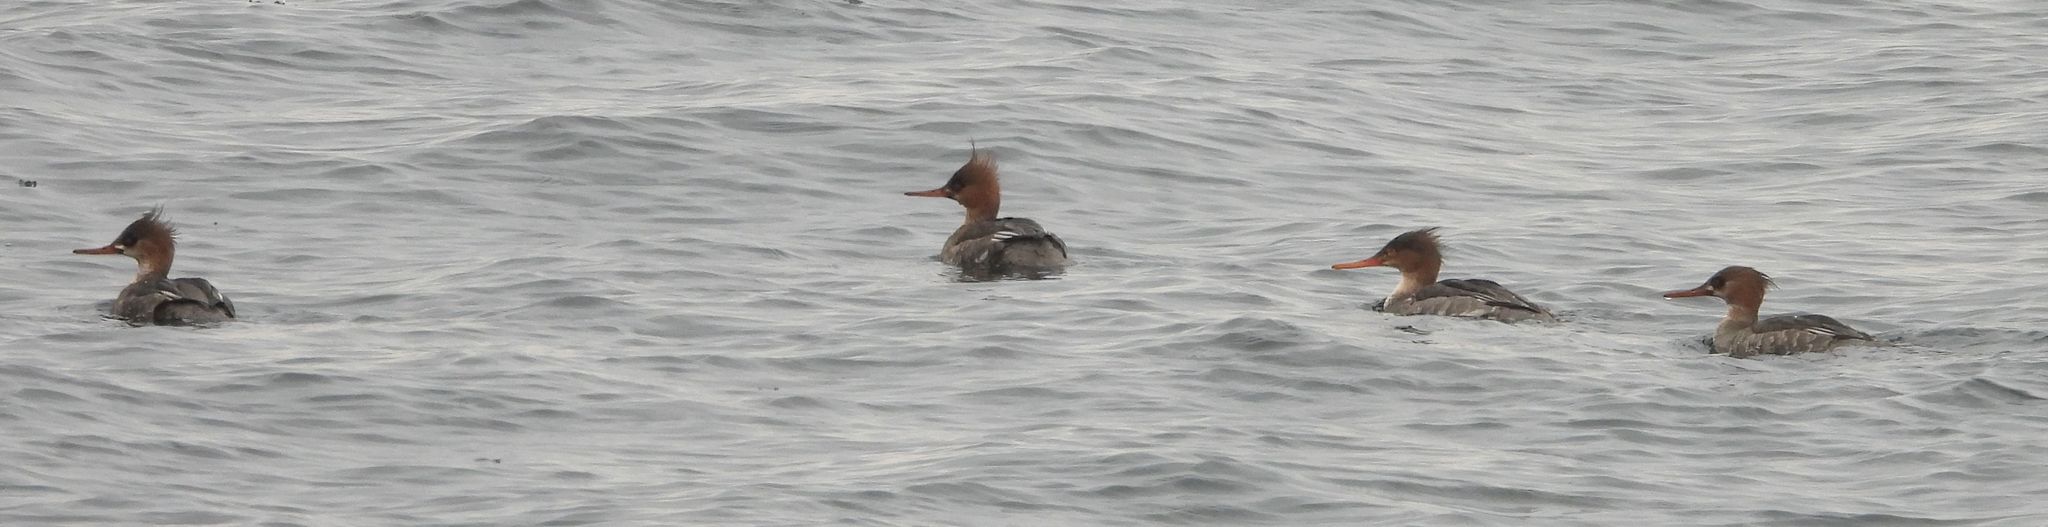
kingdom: Animalia
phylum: Chordata
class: Aves
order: Anseriformes
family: Anatidae
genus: Mergus
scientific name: Mergus serrator
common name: Red-breasted merganser
